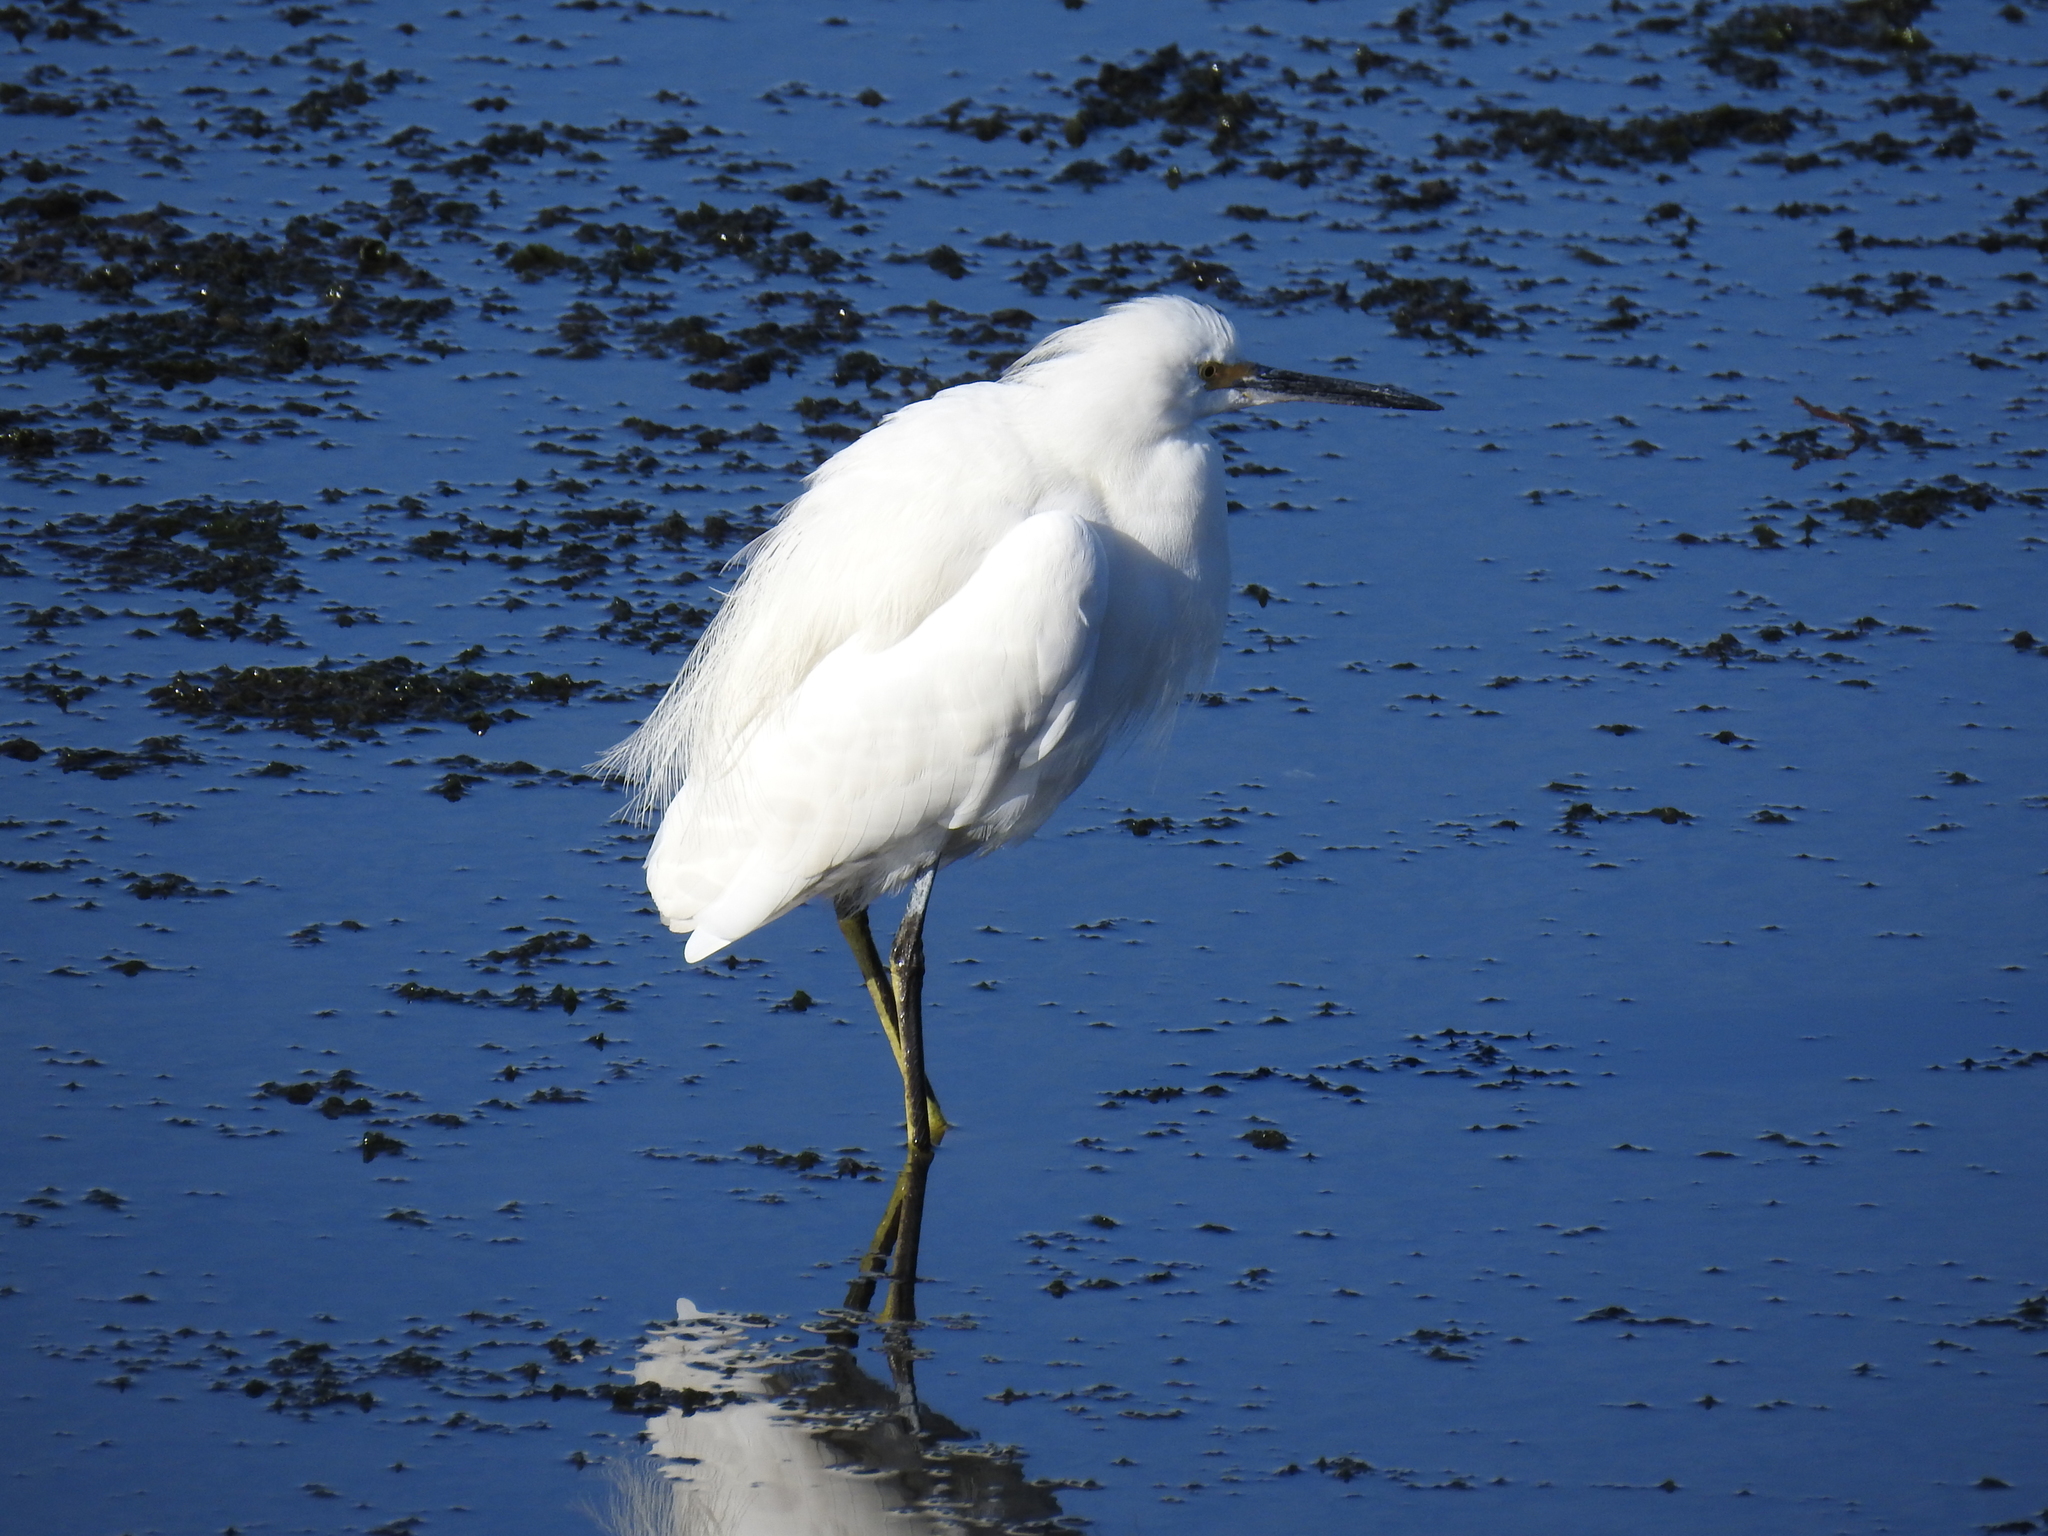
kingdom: Animalia
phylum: Chordata
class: Aves
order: Pelecaniformes
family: Ardeidae
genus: Egretta
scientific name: Egretta thula
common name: Snowy egret
